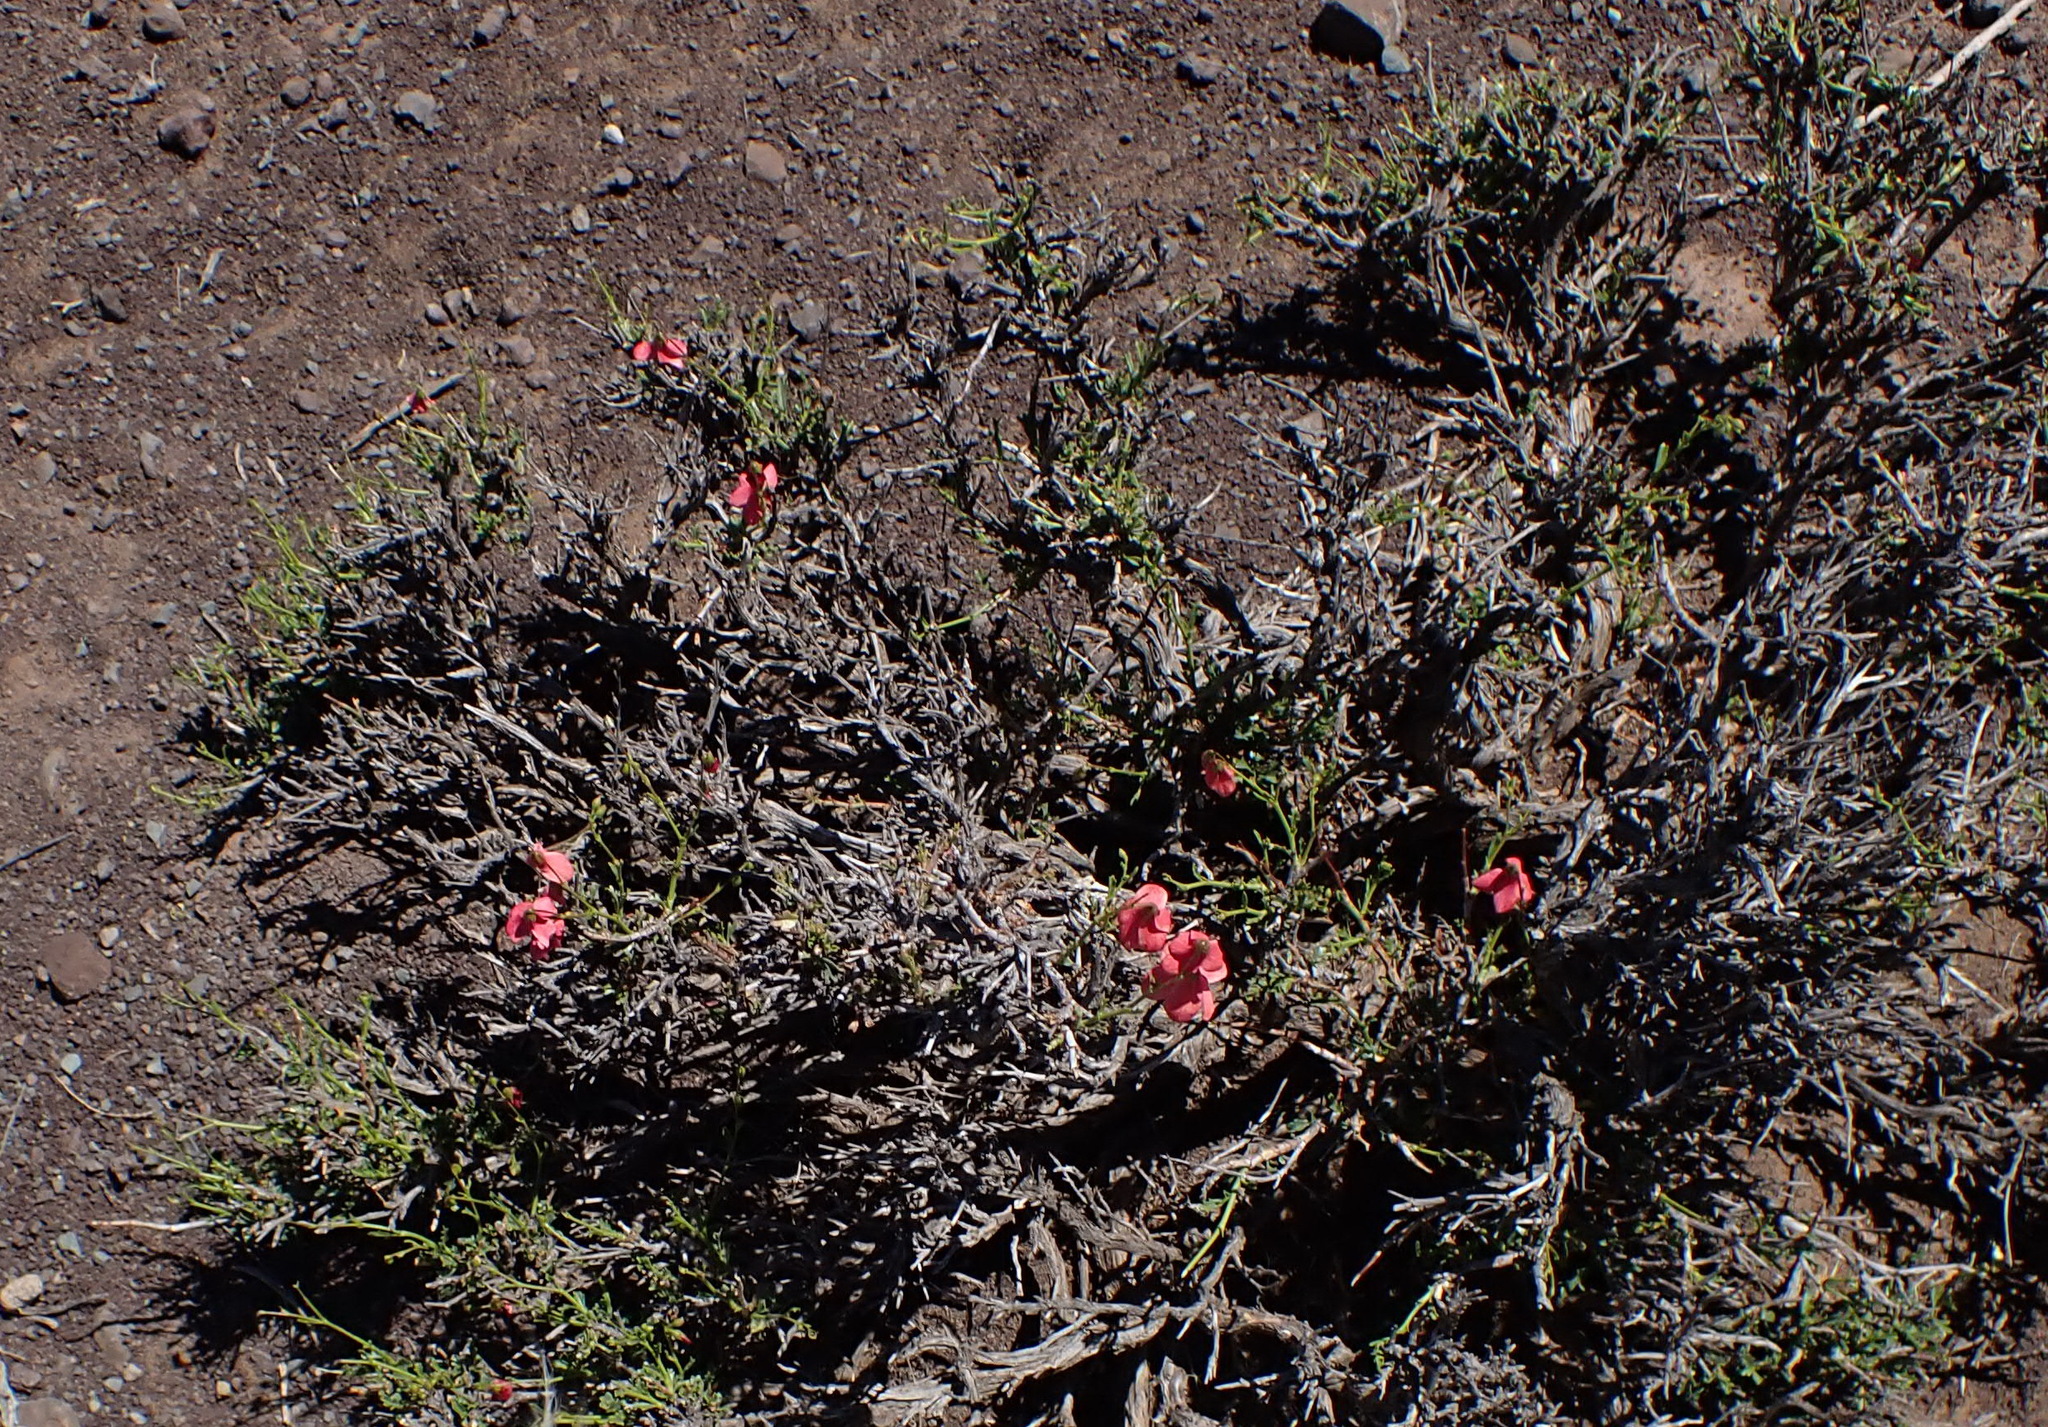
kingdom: Plantae
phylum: Tracheophyta
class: Magnoliopsida
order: Malvales
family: Malvaceae
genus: Hermannia
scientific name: Hermannia grandiflora
